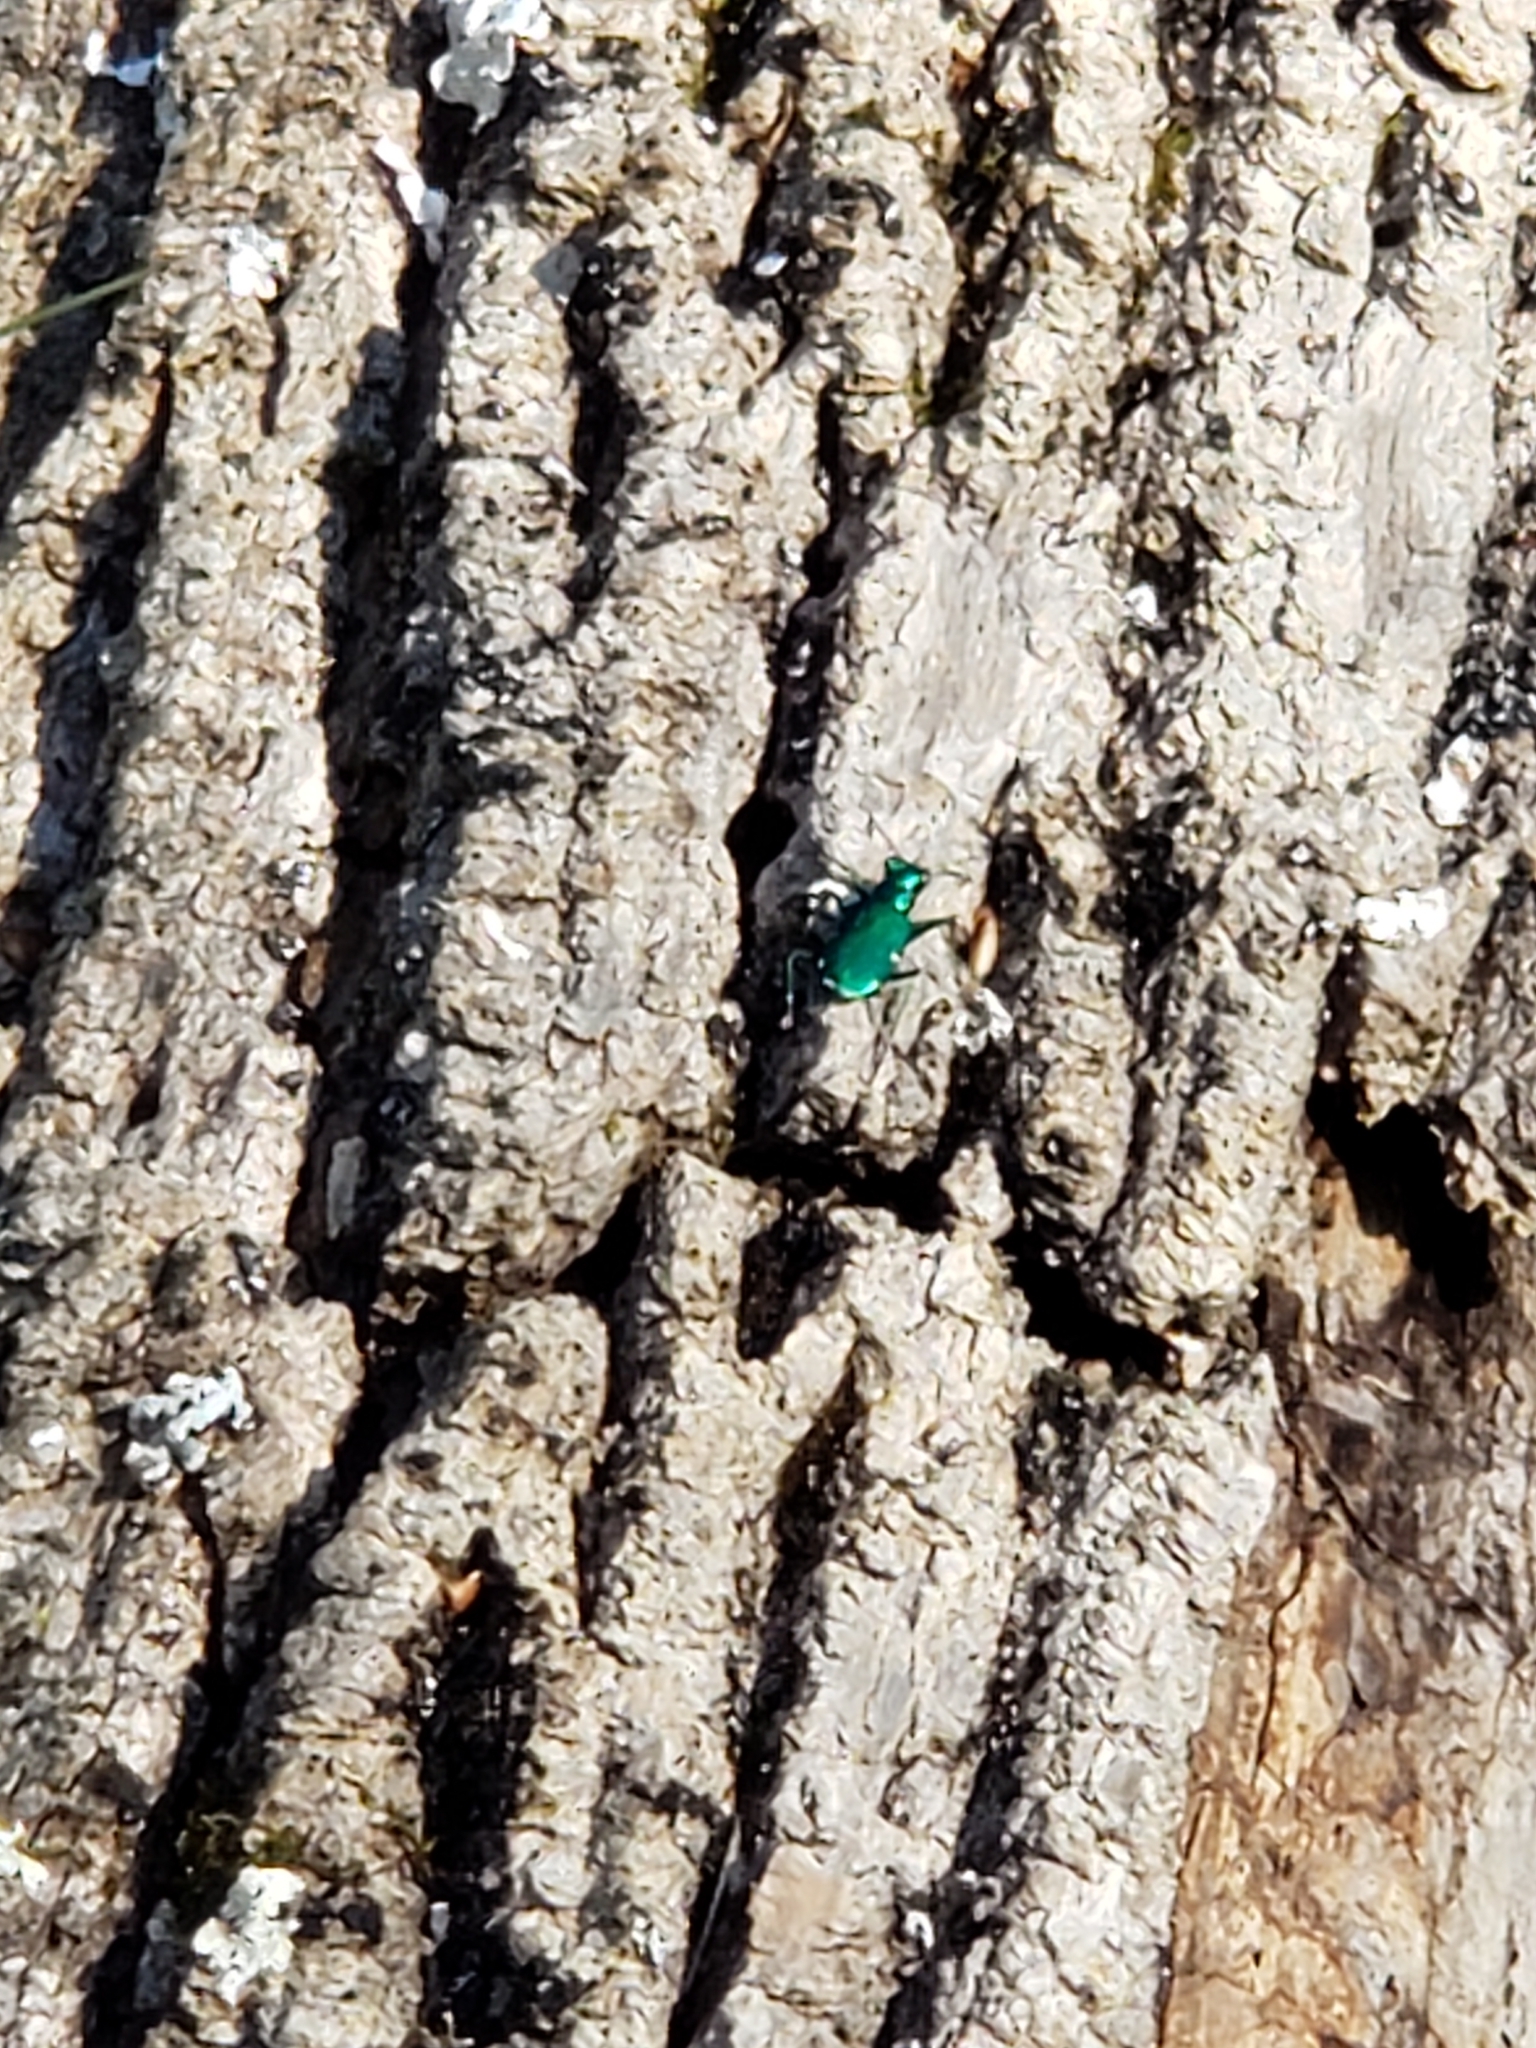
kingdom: Animalia
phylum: Arthropoda
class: Insecta
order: Coleoptera
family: Carabidae
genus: Cicindela
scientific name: Cicindela sexguttata
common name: Six-spotted tiger beetle
